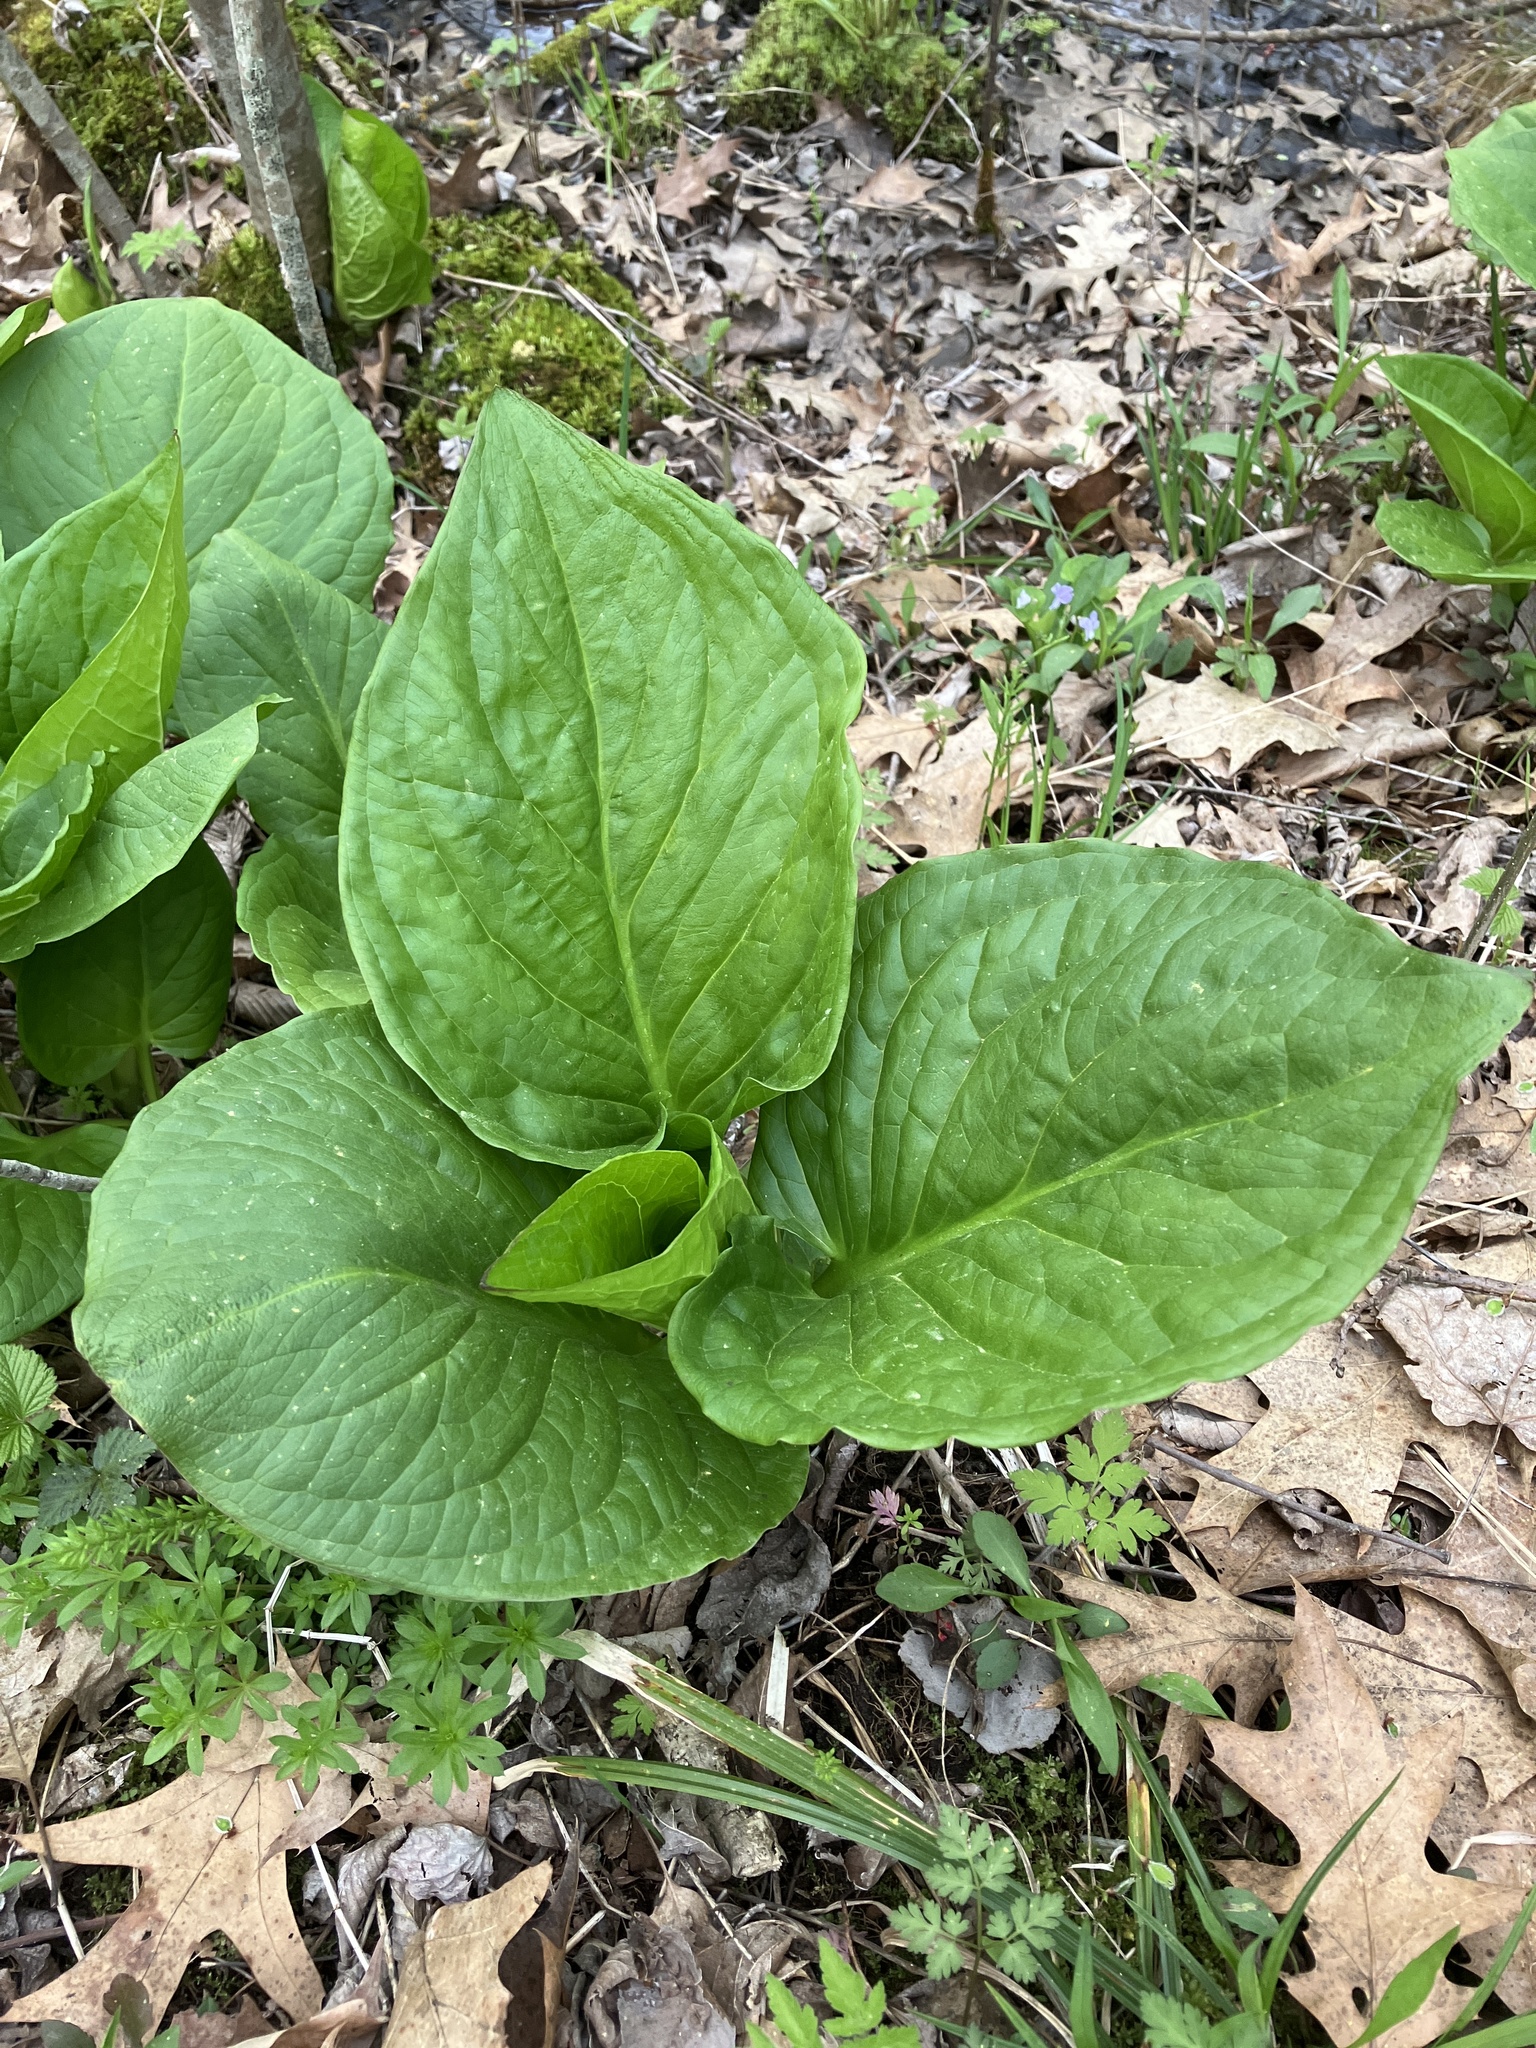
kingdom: Plantae
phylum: Tracheophyta
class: Liliopsida
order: Alismatales
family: Araceae
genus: Symplocarpus
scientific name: Symplocarpus foetidus
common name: Eastern skunk cabbage
